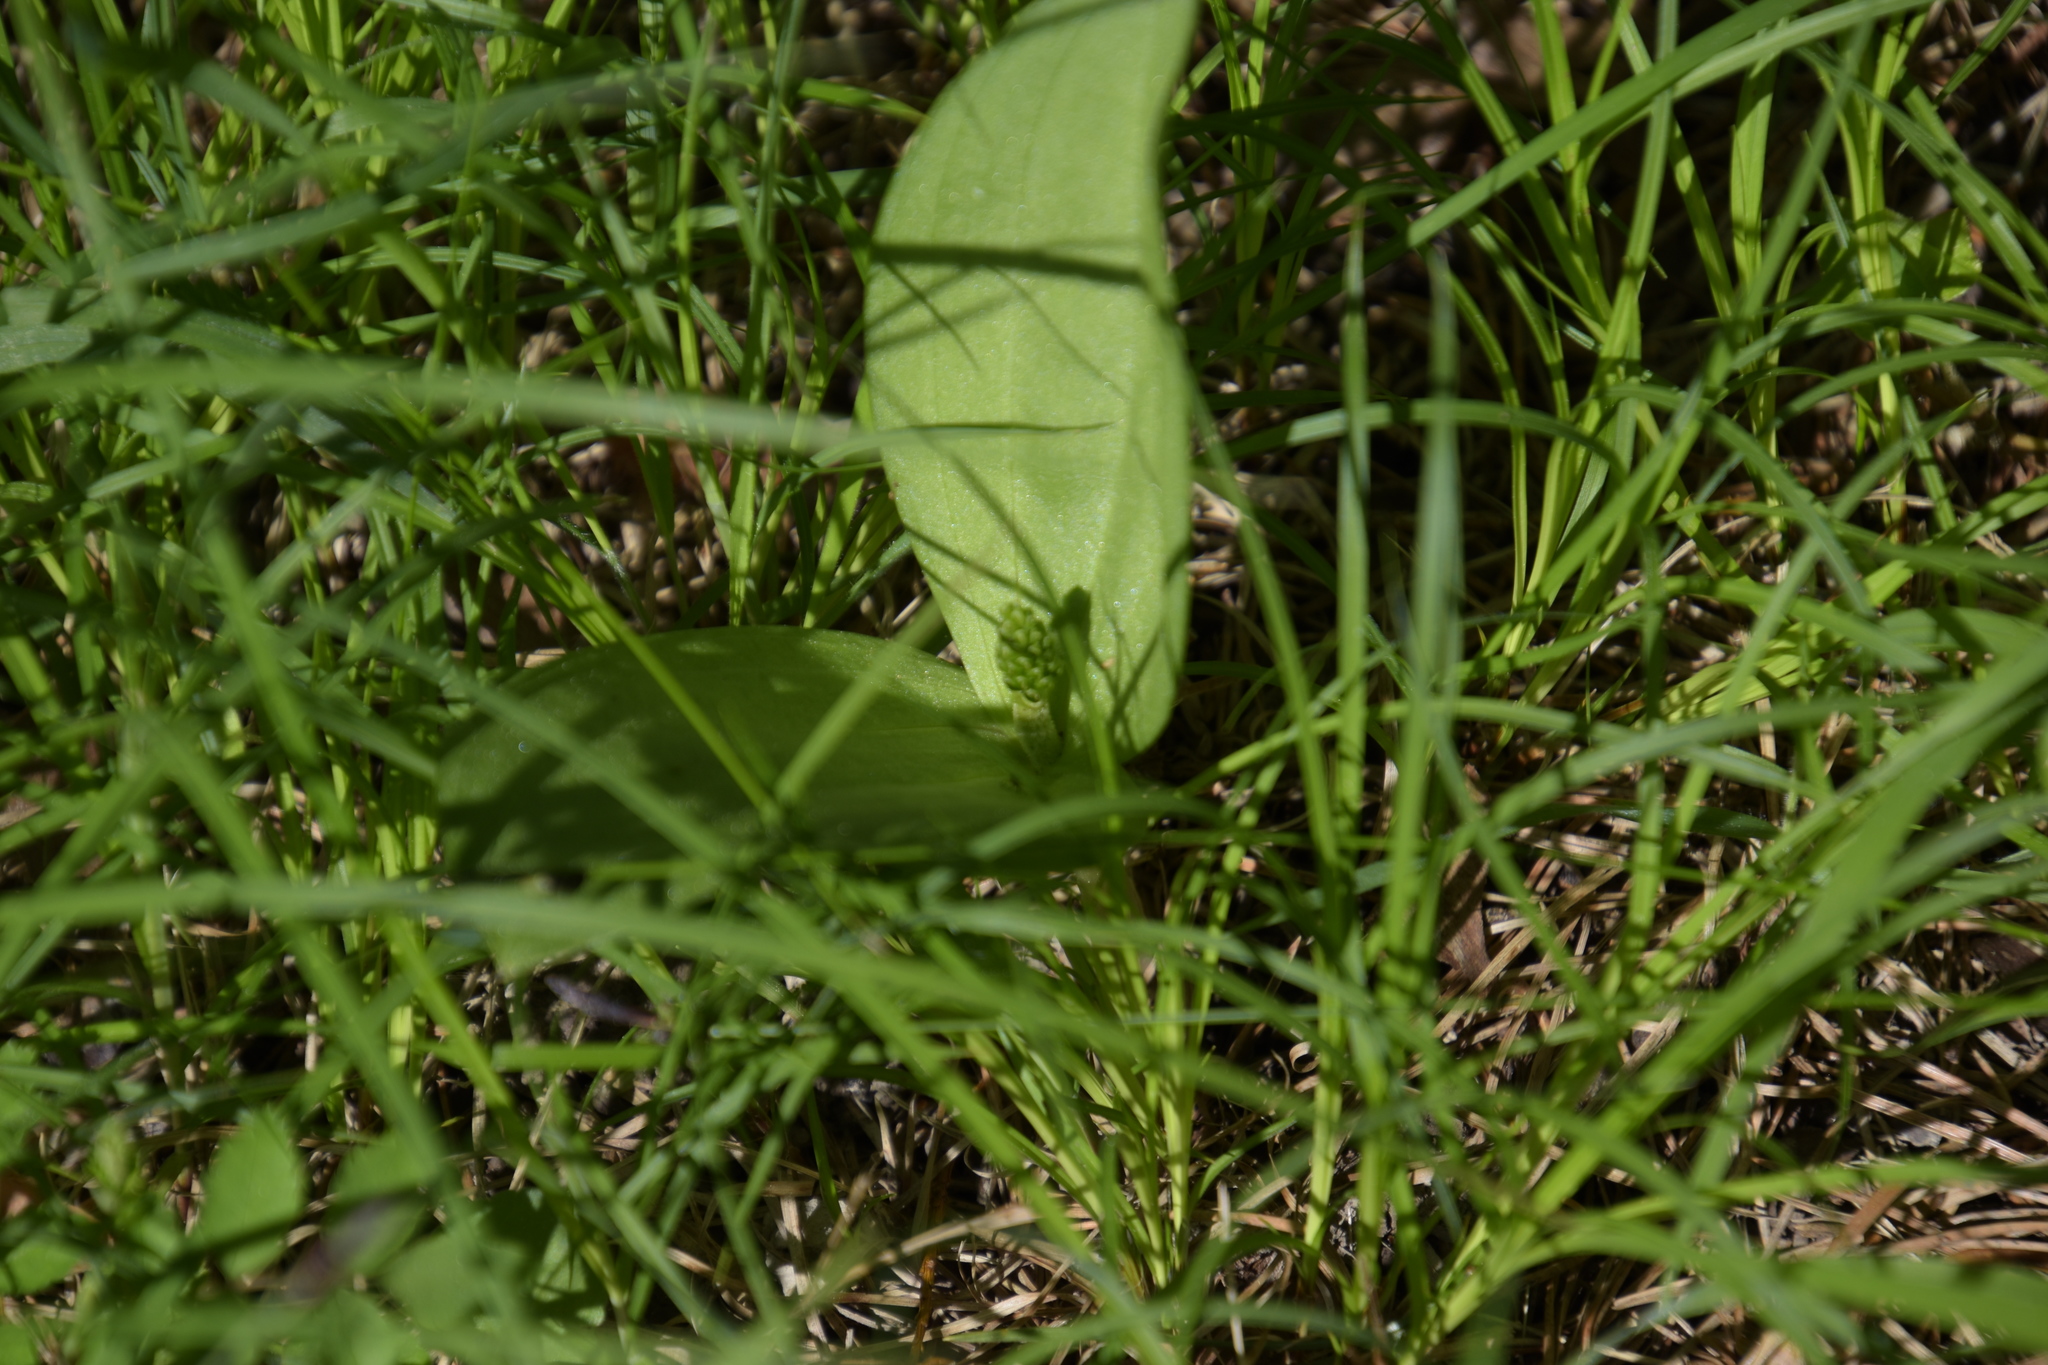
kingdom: Plantae
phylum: Tracheophyta
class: Liliopsida
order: Asparagales
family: Orchidaceae
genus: Neottia
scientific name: Neottia ovata
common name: Common twayblade
